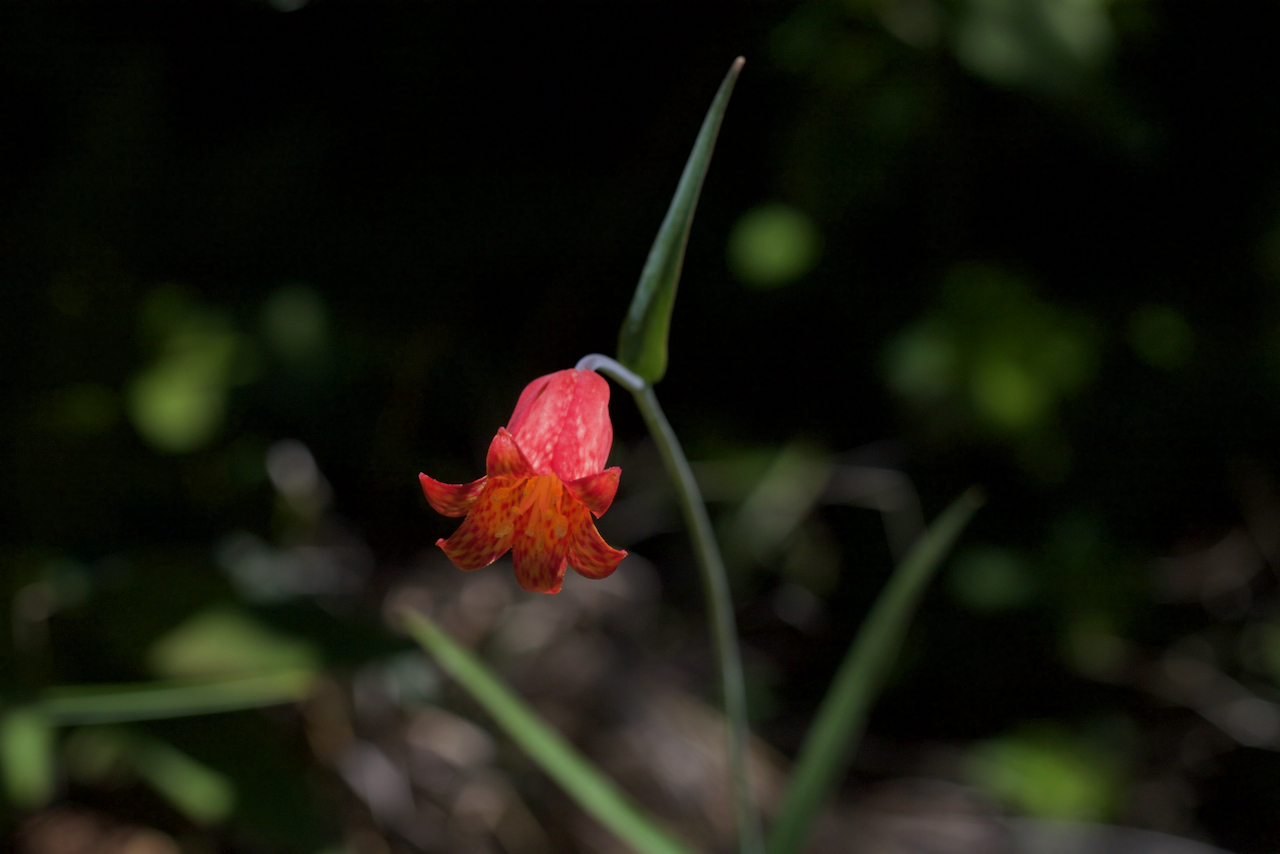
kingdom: Plantae
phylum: Tracheophyta
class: Liliopsida
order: Liliales
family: Liliaceae
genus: Fritillaria
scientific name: Fritillaria recurva
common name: Scarlet fritillary
